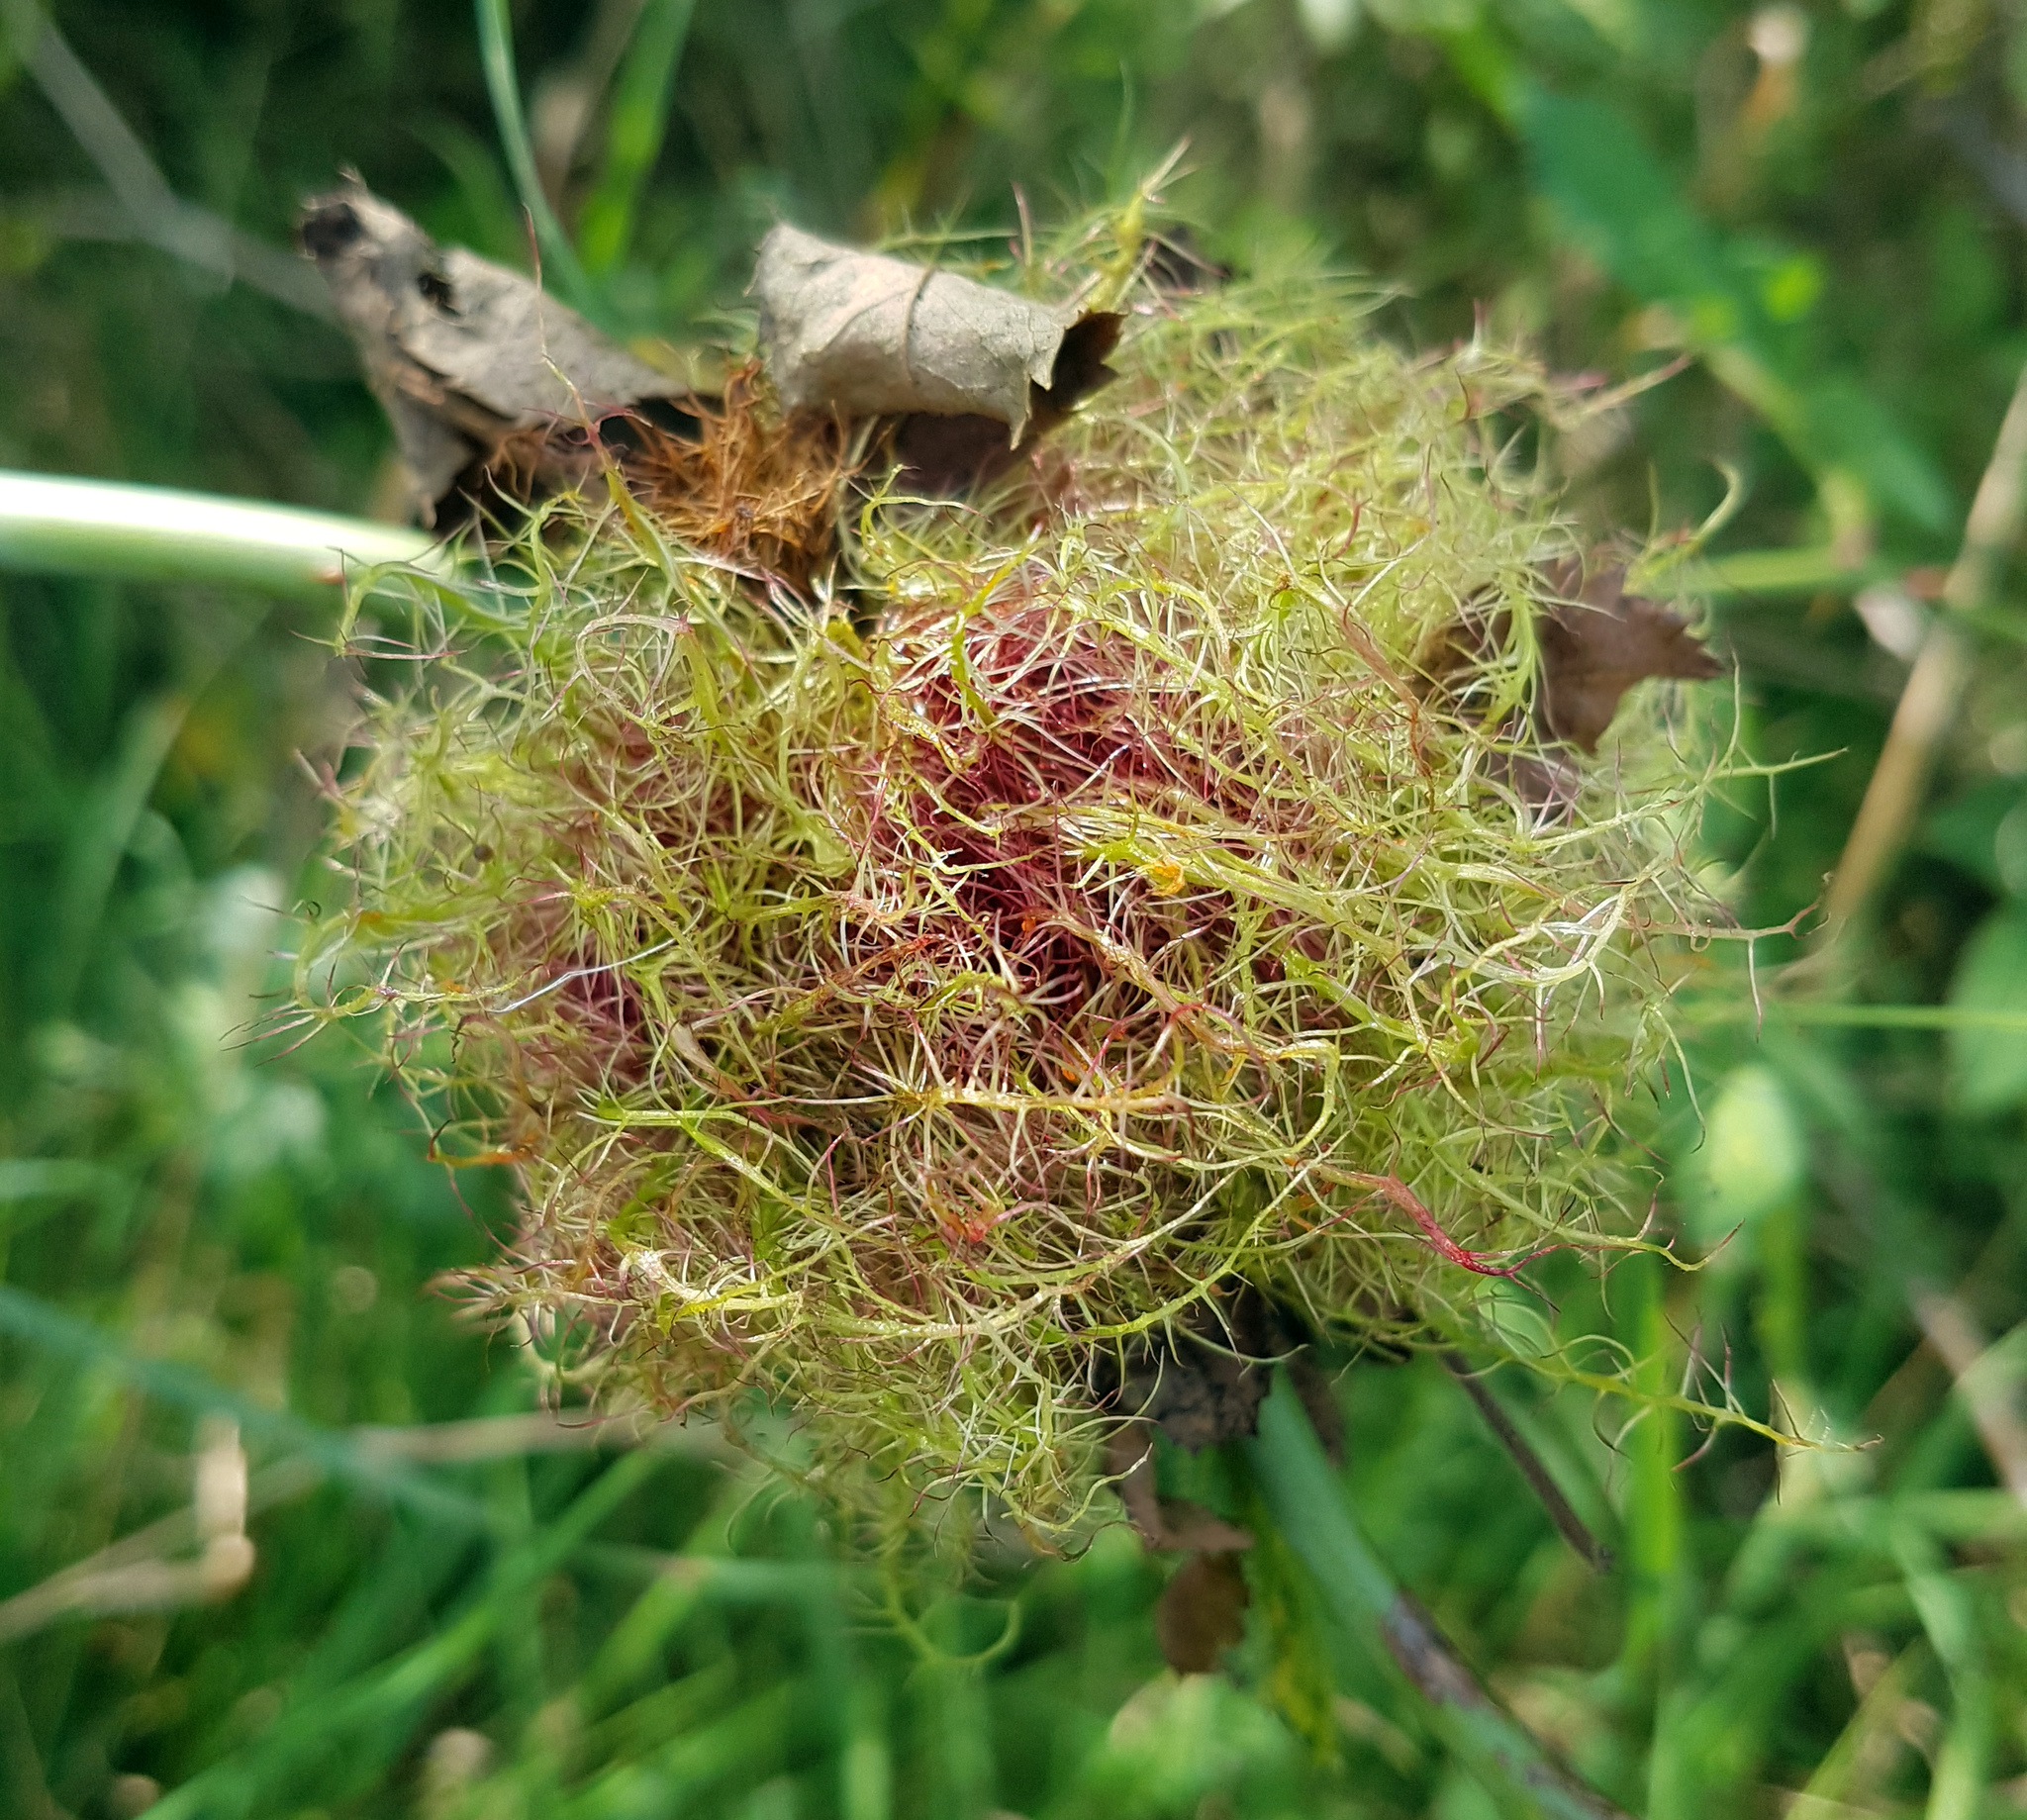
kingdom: Animalia
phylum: Arthropoda
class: Insecta
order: Hymenoptera
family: Cynipidae
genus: Diplolepis
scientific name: Diplolepis rosae
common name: Bedeguar gall
